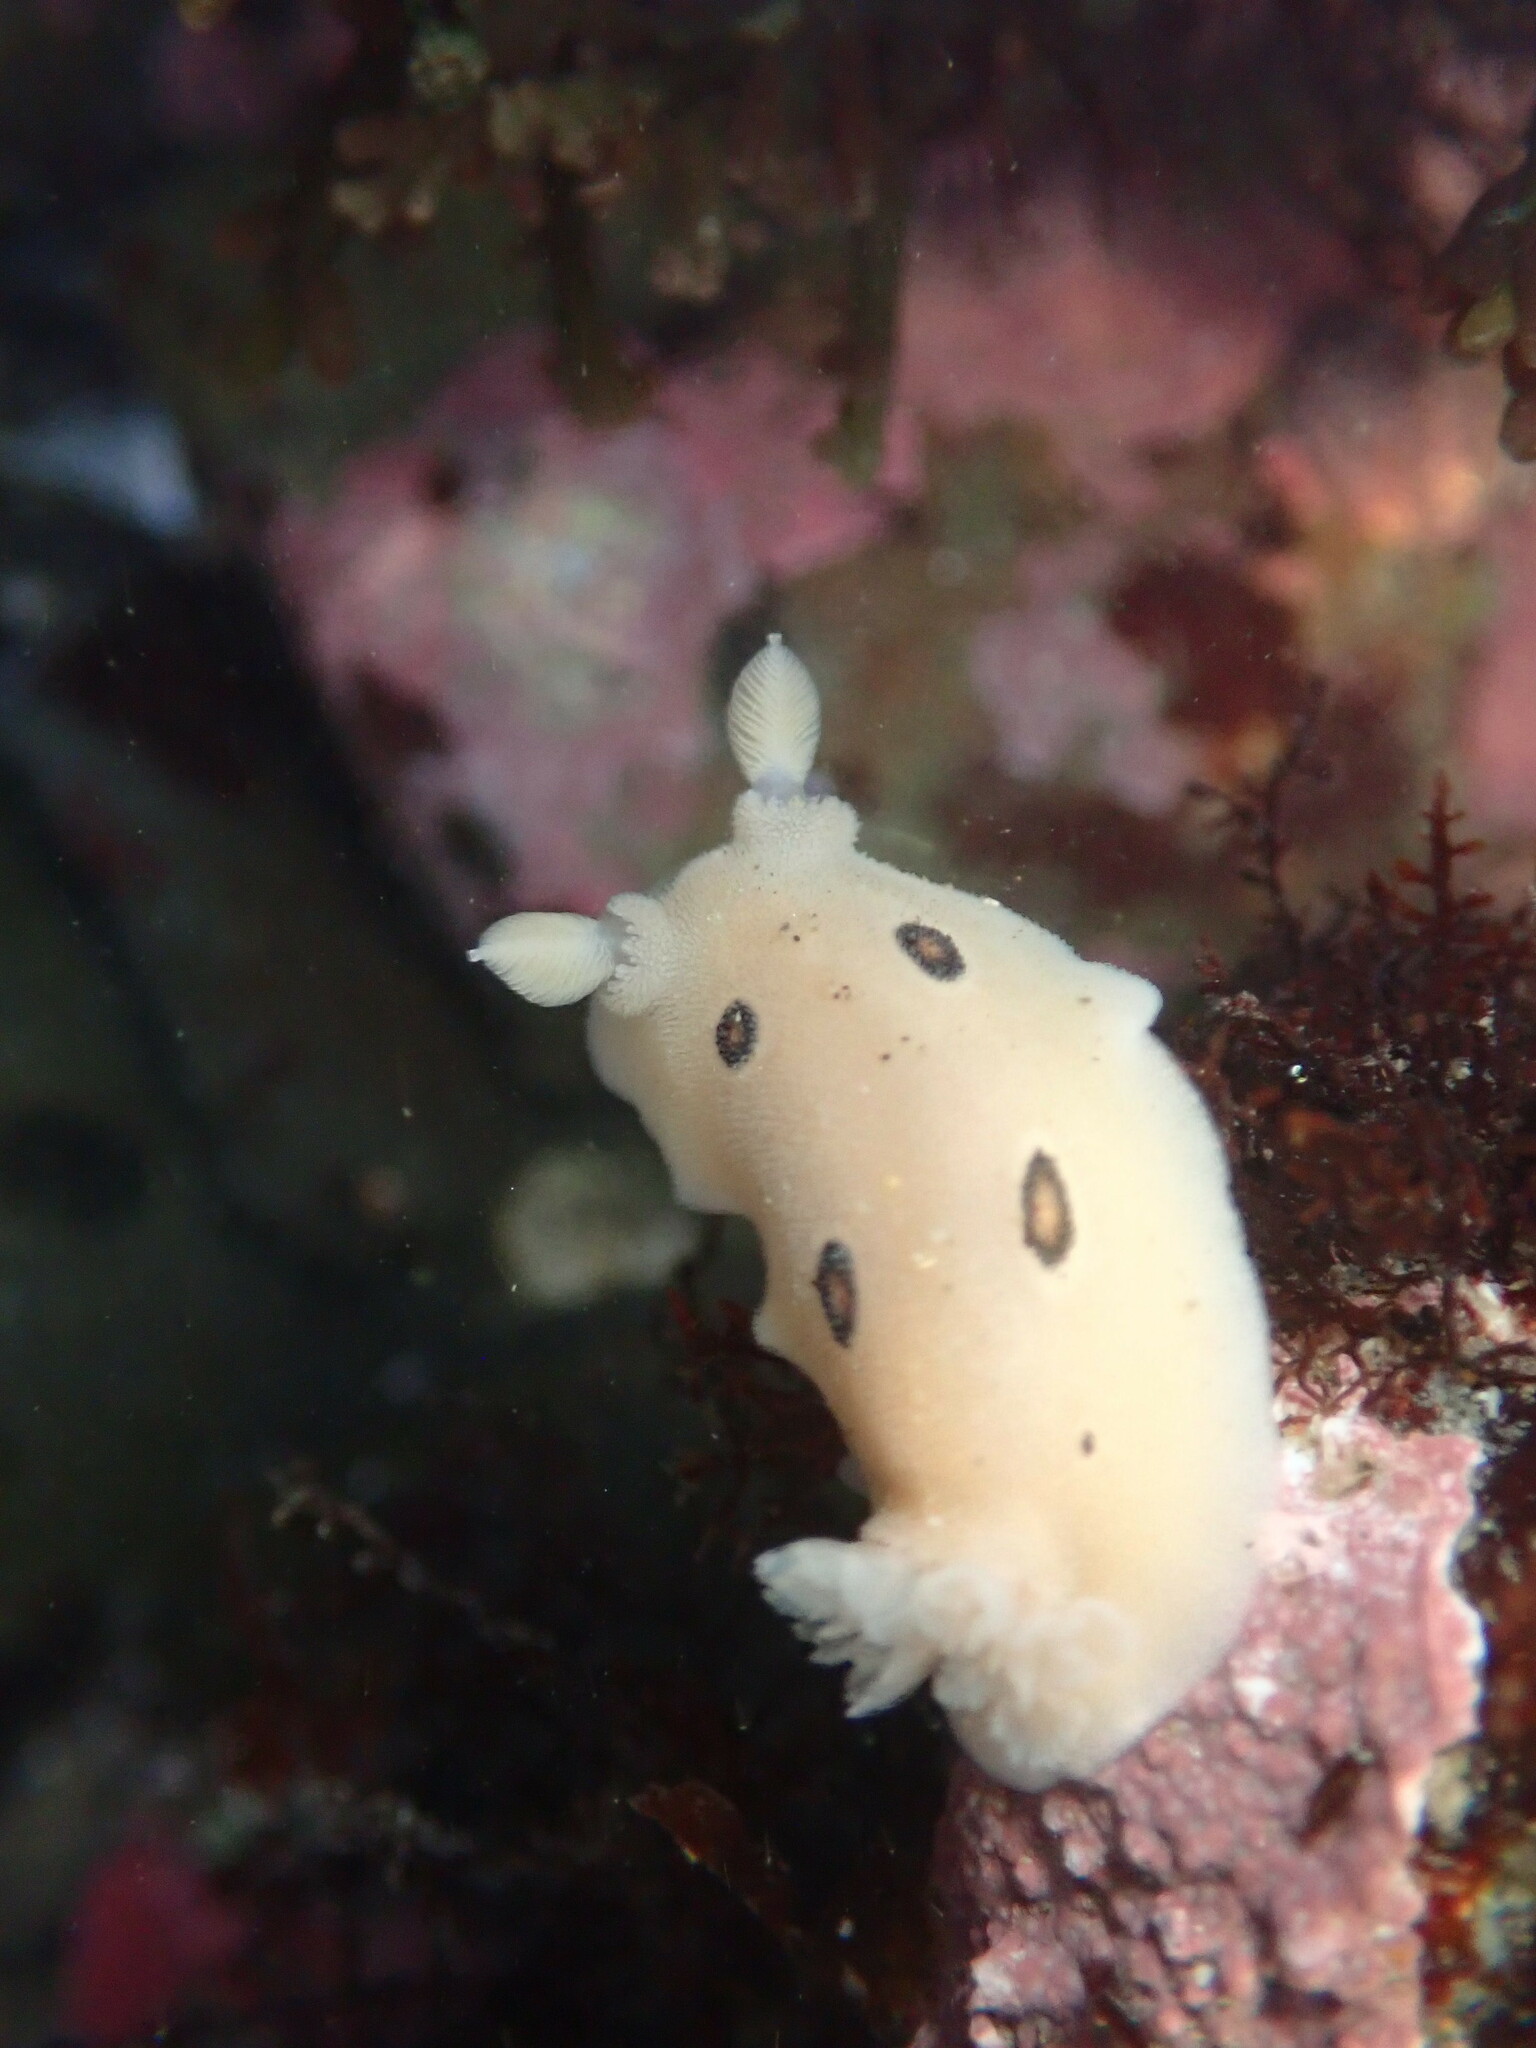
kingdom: Animalia
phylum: Mollusca
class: Gastropoda
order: Nudibranchia
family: Discodorididae
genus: Diaulula
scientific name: Diaulula sandiegensis
